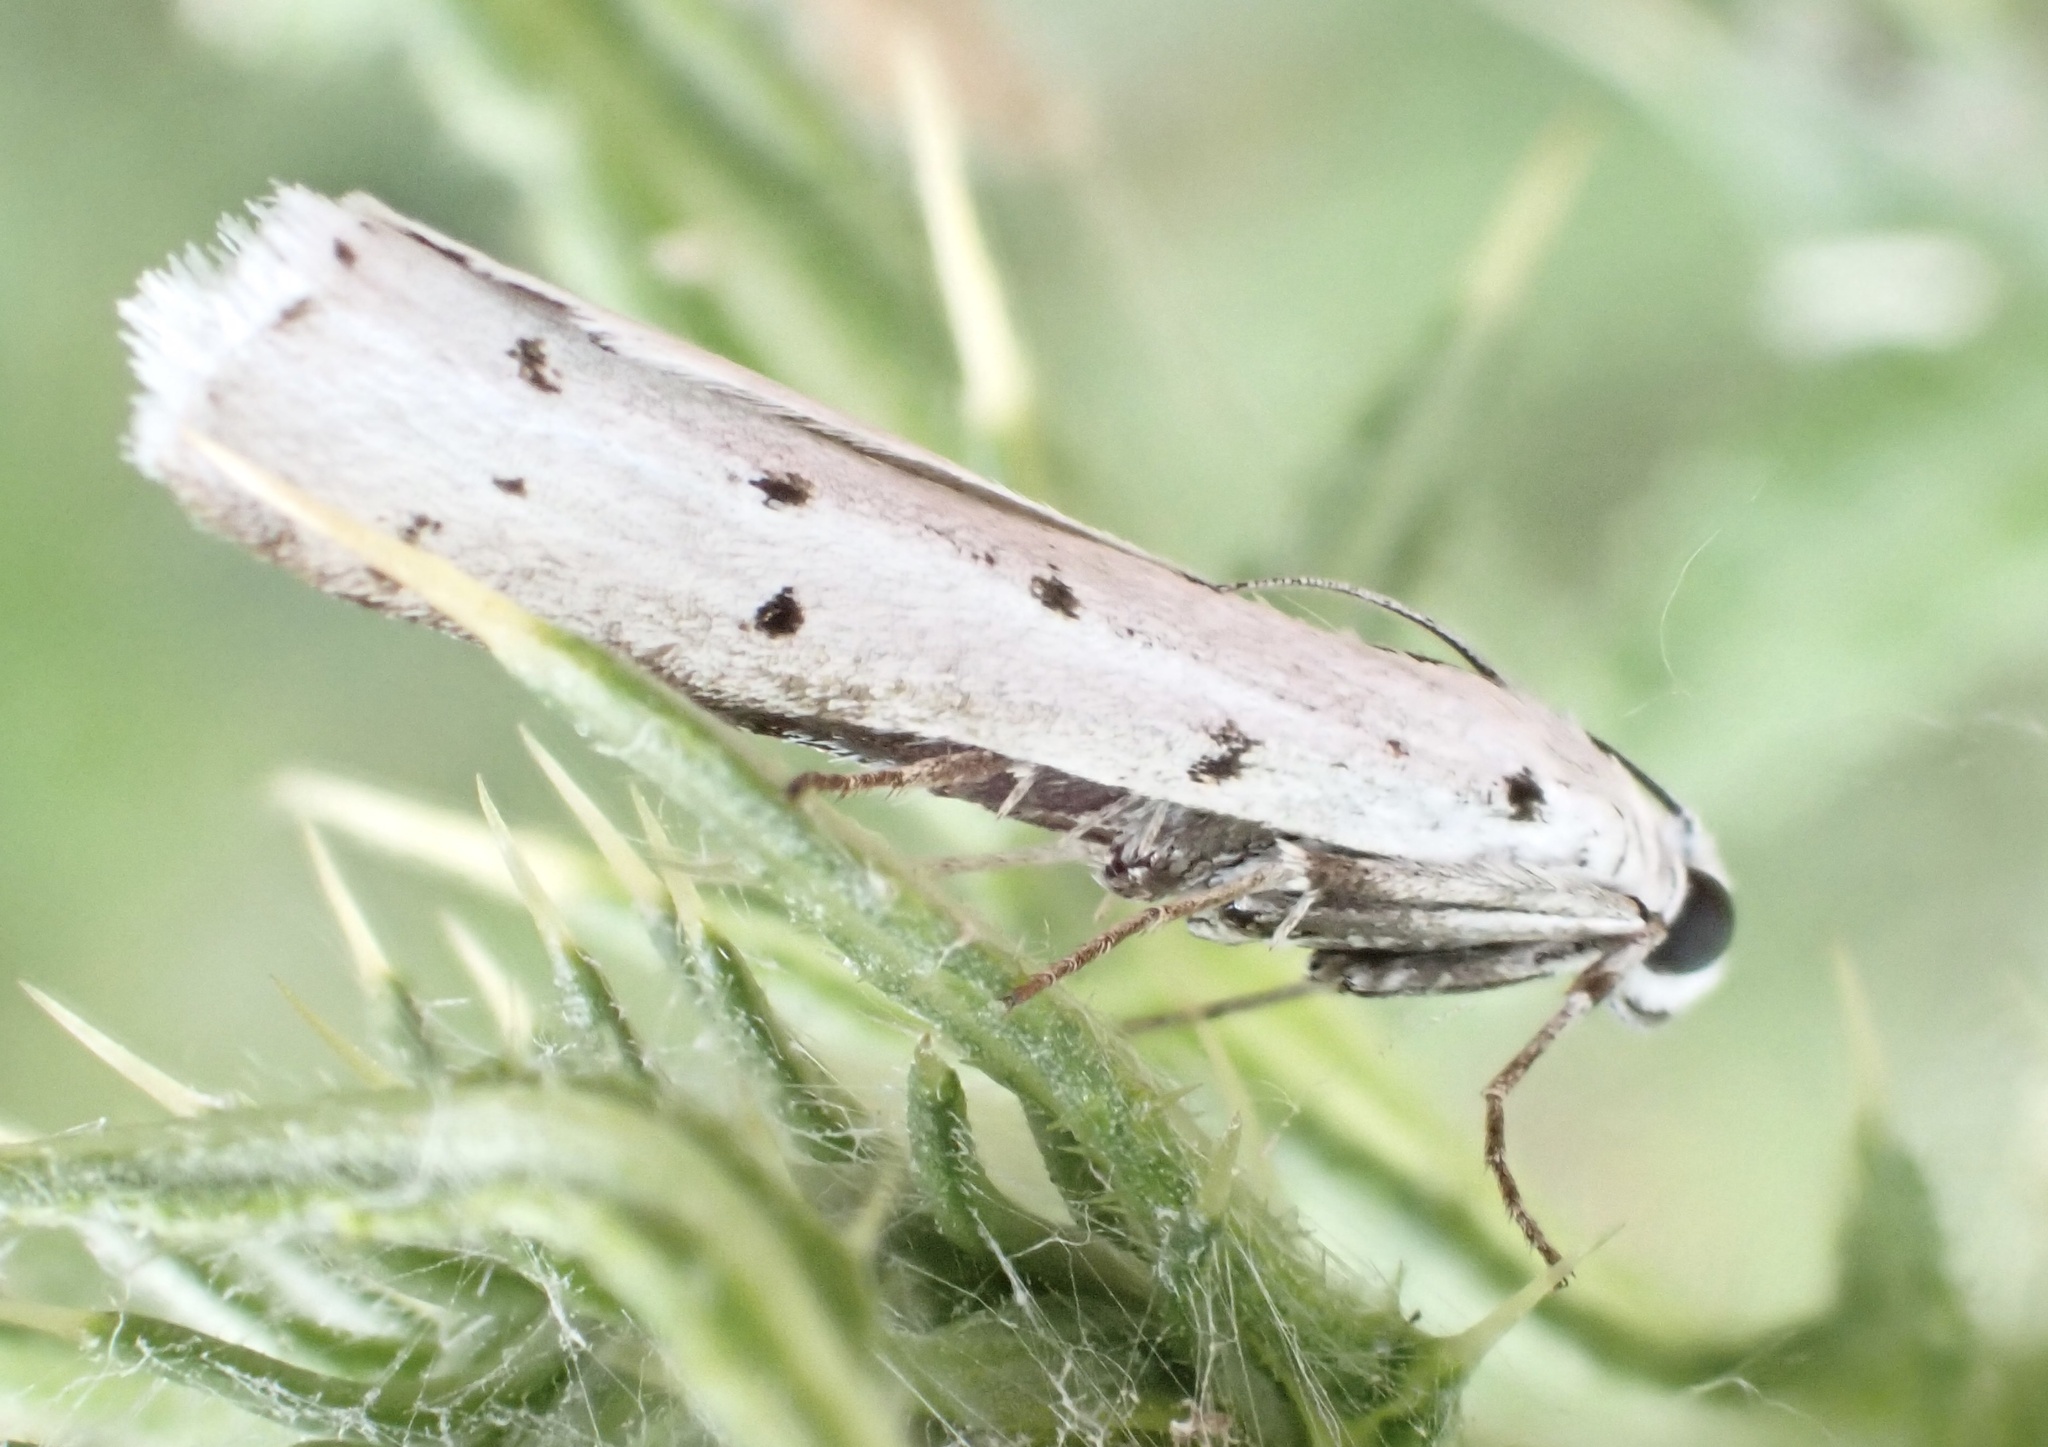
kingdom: Animalia
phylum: Arthropoda
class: Insecta
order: Lepidoptera
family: Pyralidae
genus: Myelois
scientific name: Myelois circumvoluta
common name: Thistle ermine
